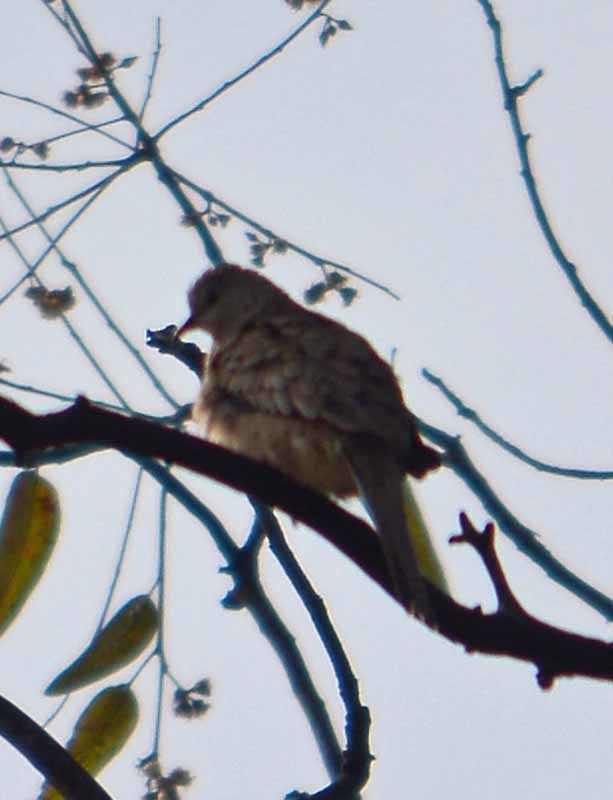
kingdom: Animalia
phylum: Chordata
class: Aves
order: Columbiformes
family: Columbidae
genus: Columbina
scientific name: Columbina inca
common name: Inca dove
